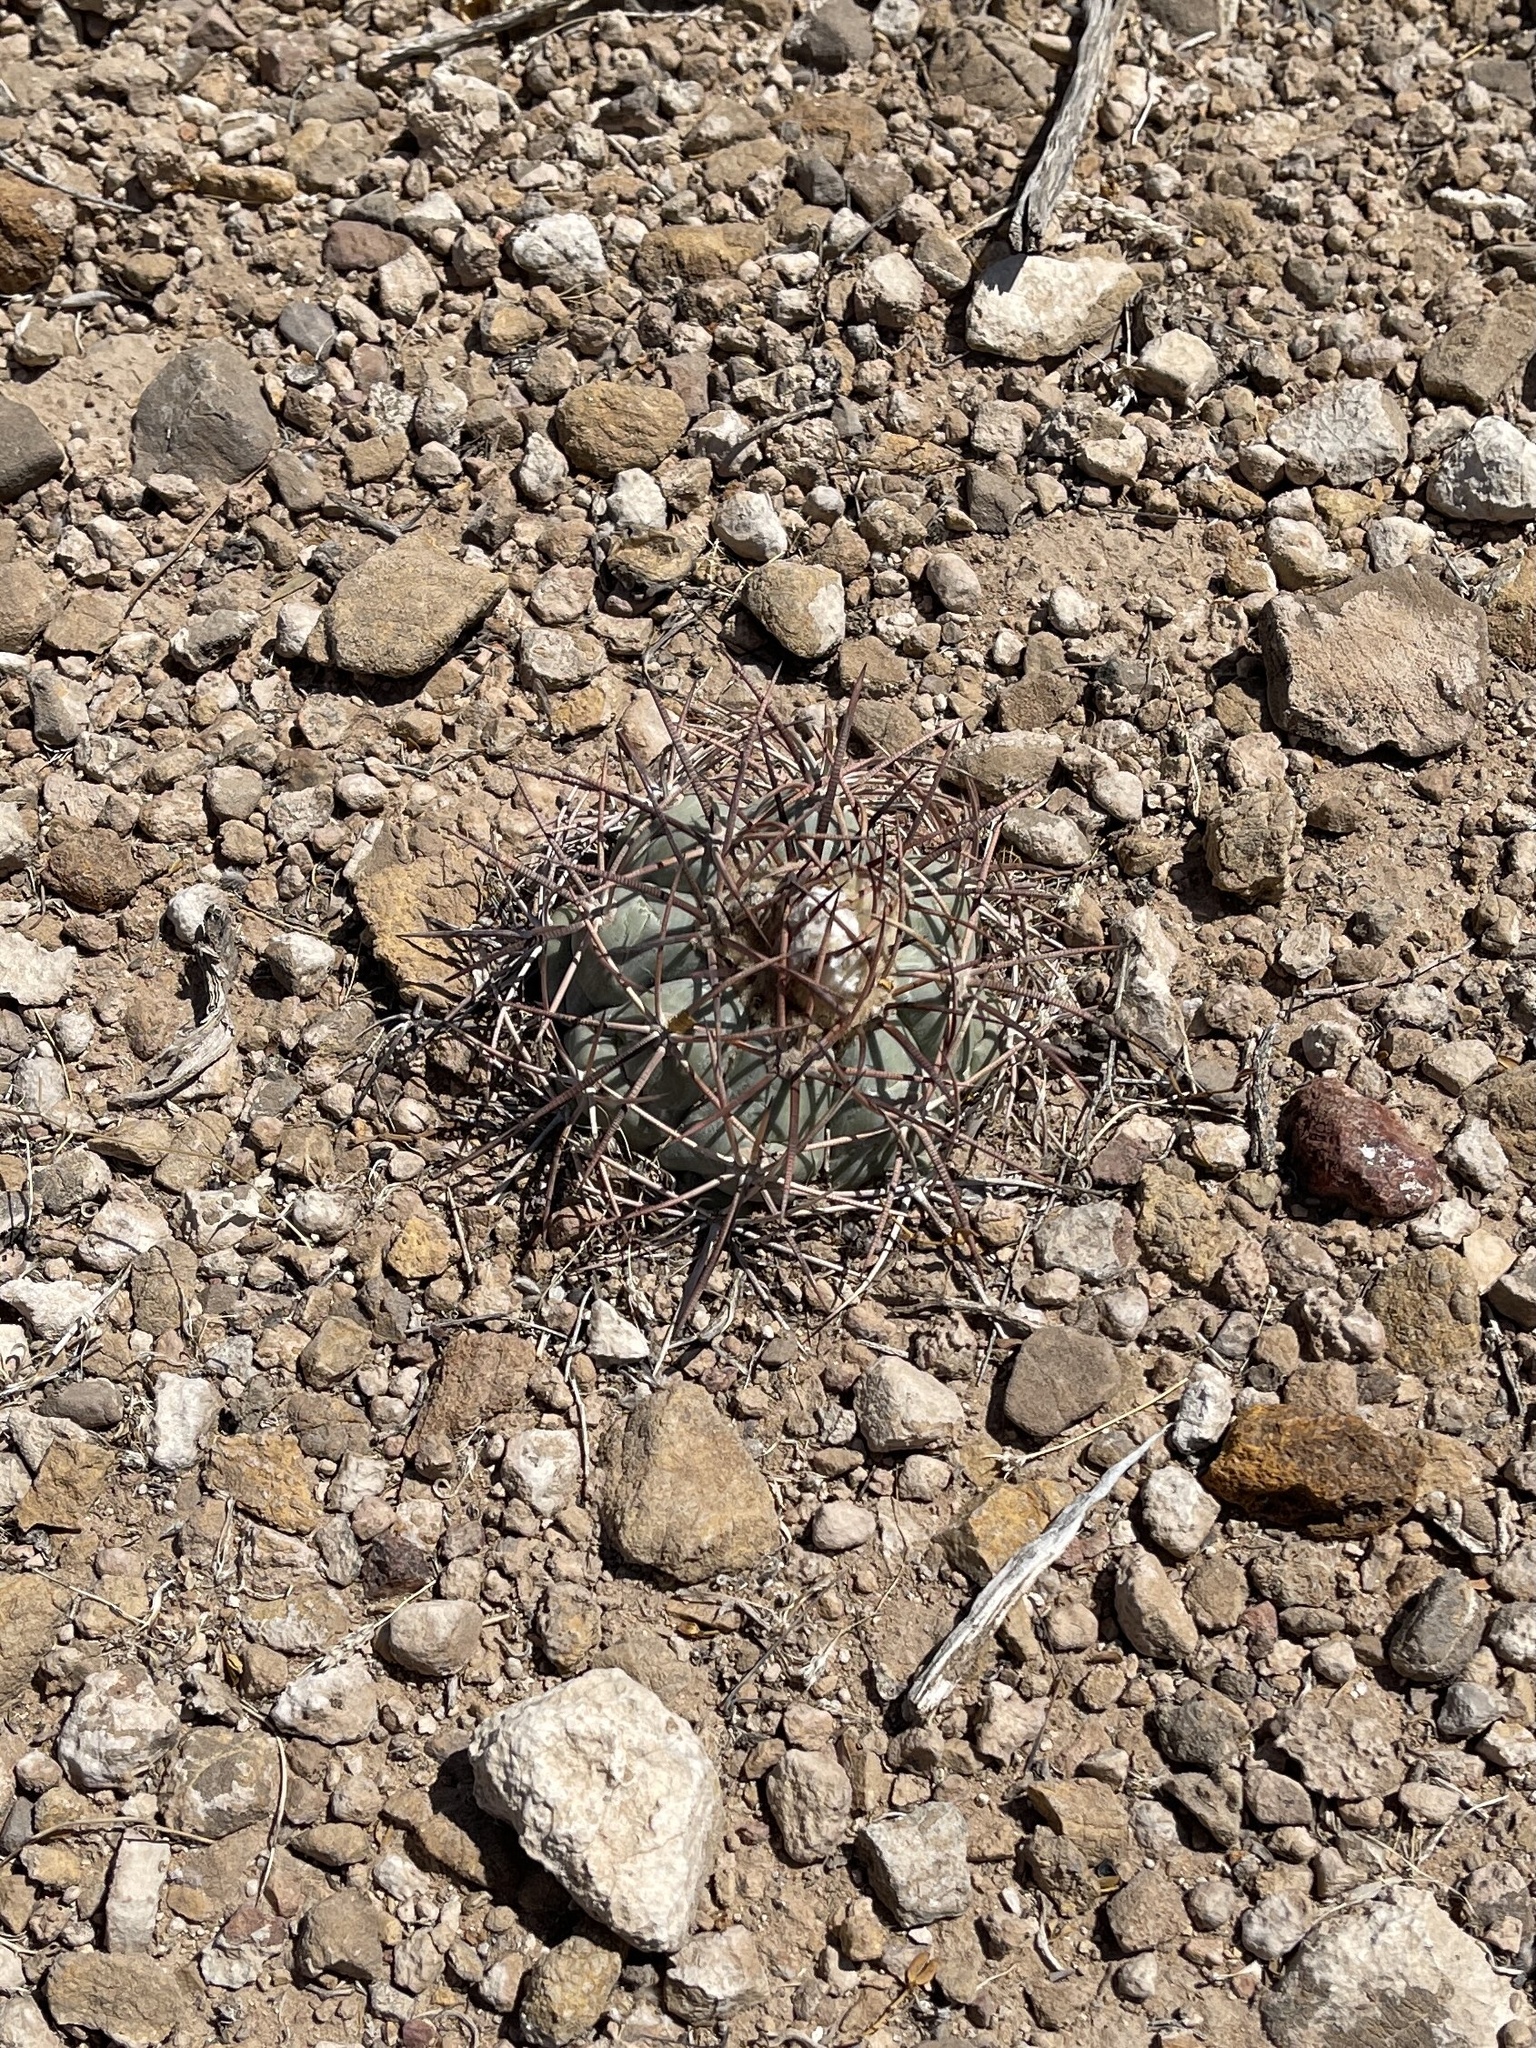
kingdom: Plantae
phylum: Tracheophyta
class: Magnoliopsida
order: Caryophyllales
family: Cactaceae
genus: Echinocactus
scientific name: Echinocactus horizonthalonius
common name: Devilshead
